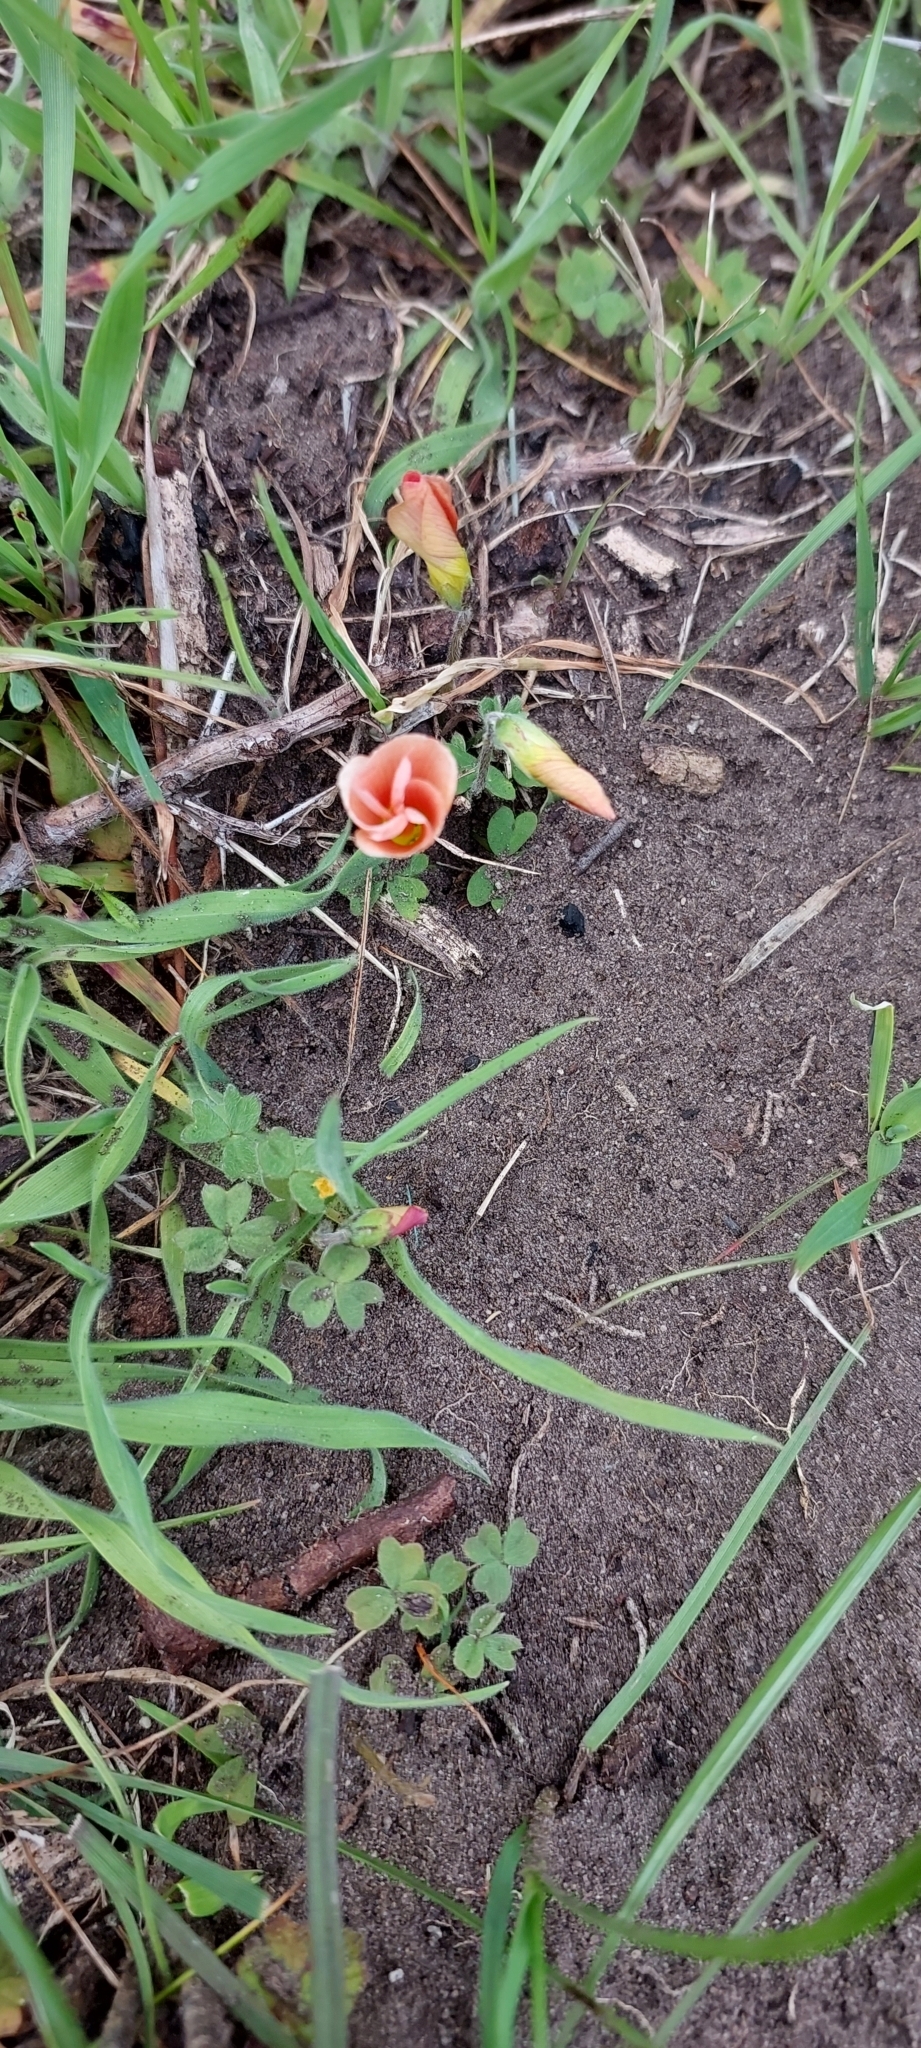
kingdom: Plantae
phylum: Tracheophyta
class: Magnoliopsida
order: Oxalidales
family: Oxalidaceae
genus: Oxalis
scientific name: Oxalis obtusa
